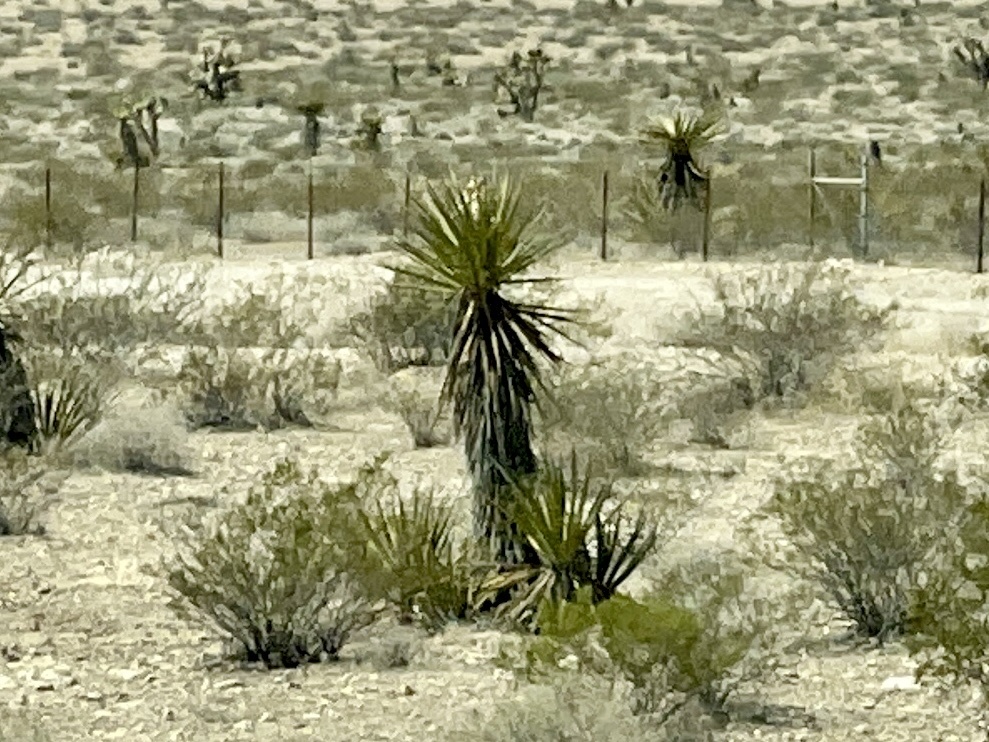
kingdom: Plantae
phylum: Tracheophyta
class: Liliopsida
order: Asparagales
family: Asparagaceae
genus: Yucca
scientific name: Yucca schidigera
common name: Mojave yucca
